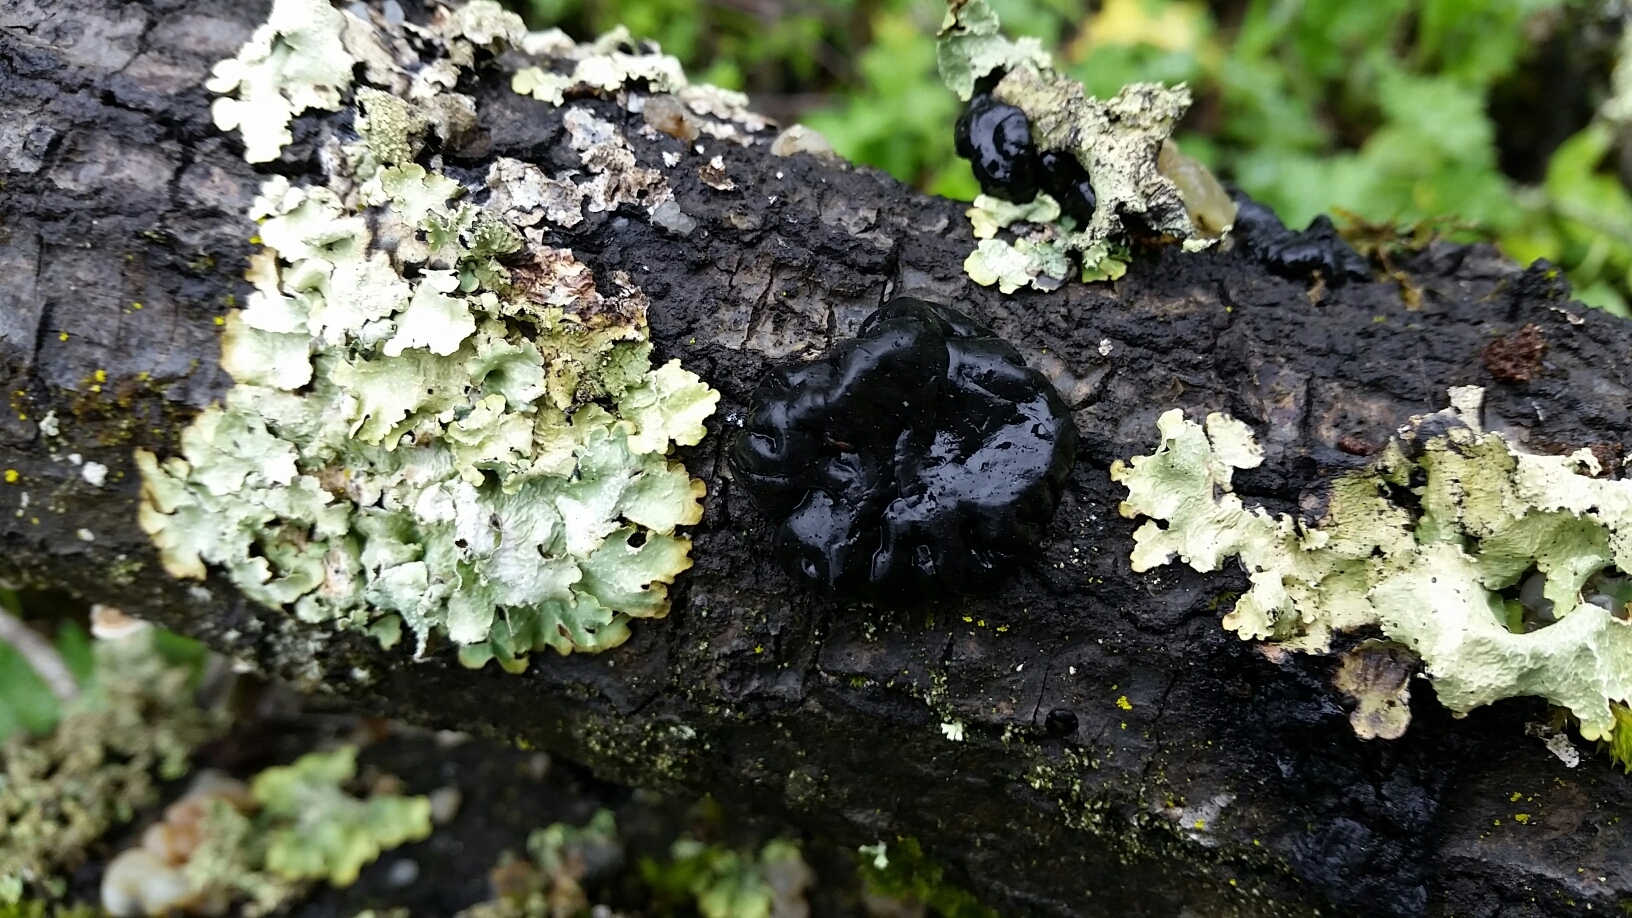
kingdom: Fungi
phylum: Basidiomycota
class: Agaricomycetes
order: Auriculariales
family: Auriculariaceae
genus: Exidia
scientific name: Exidia glandulosa
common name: Witches' butter
